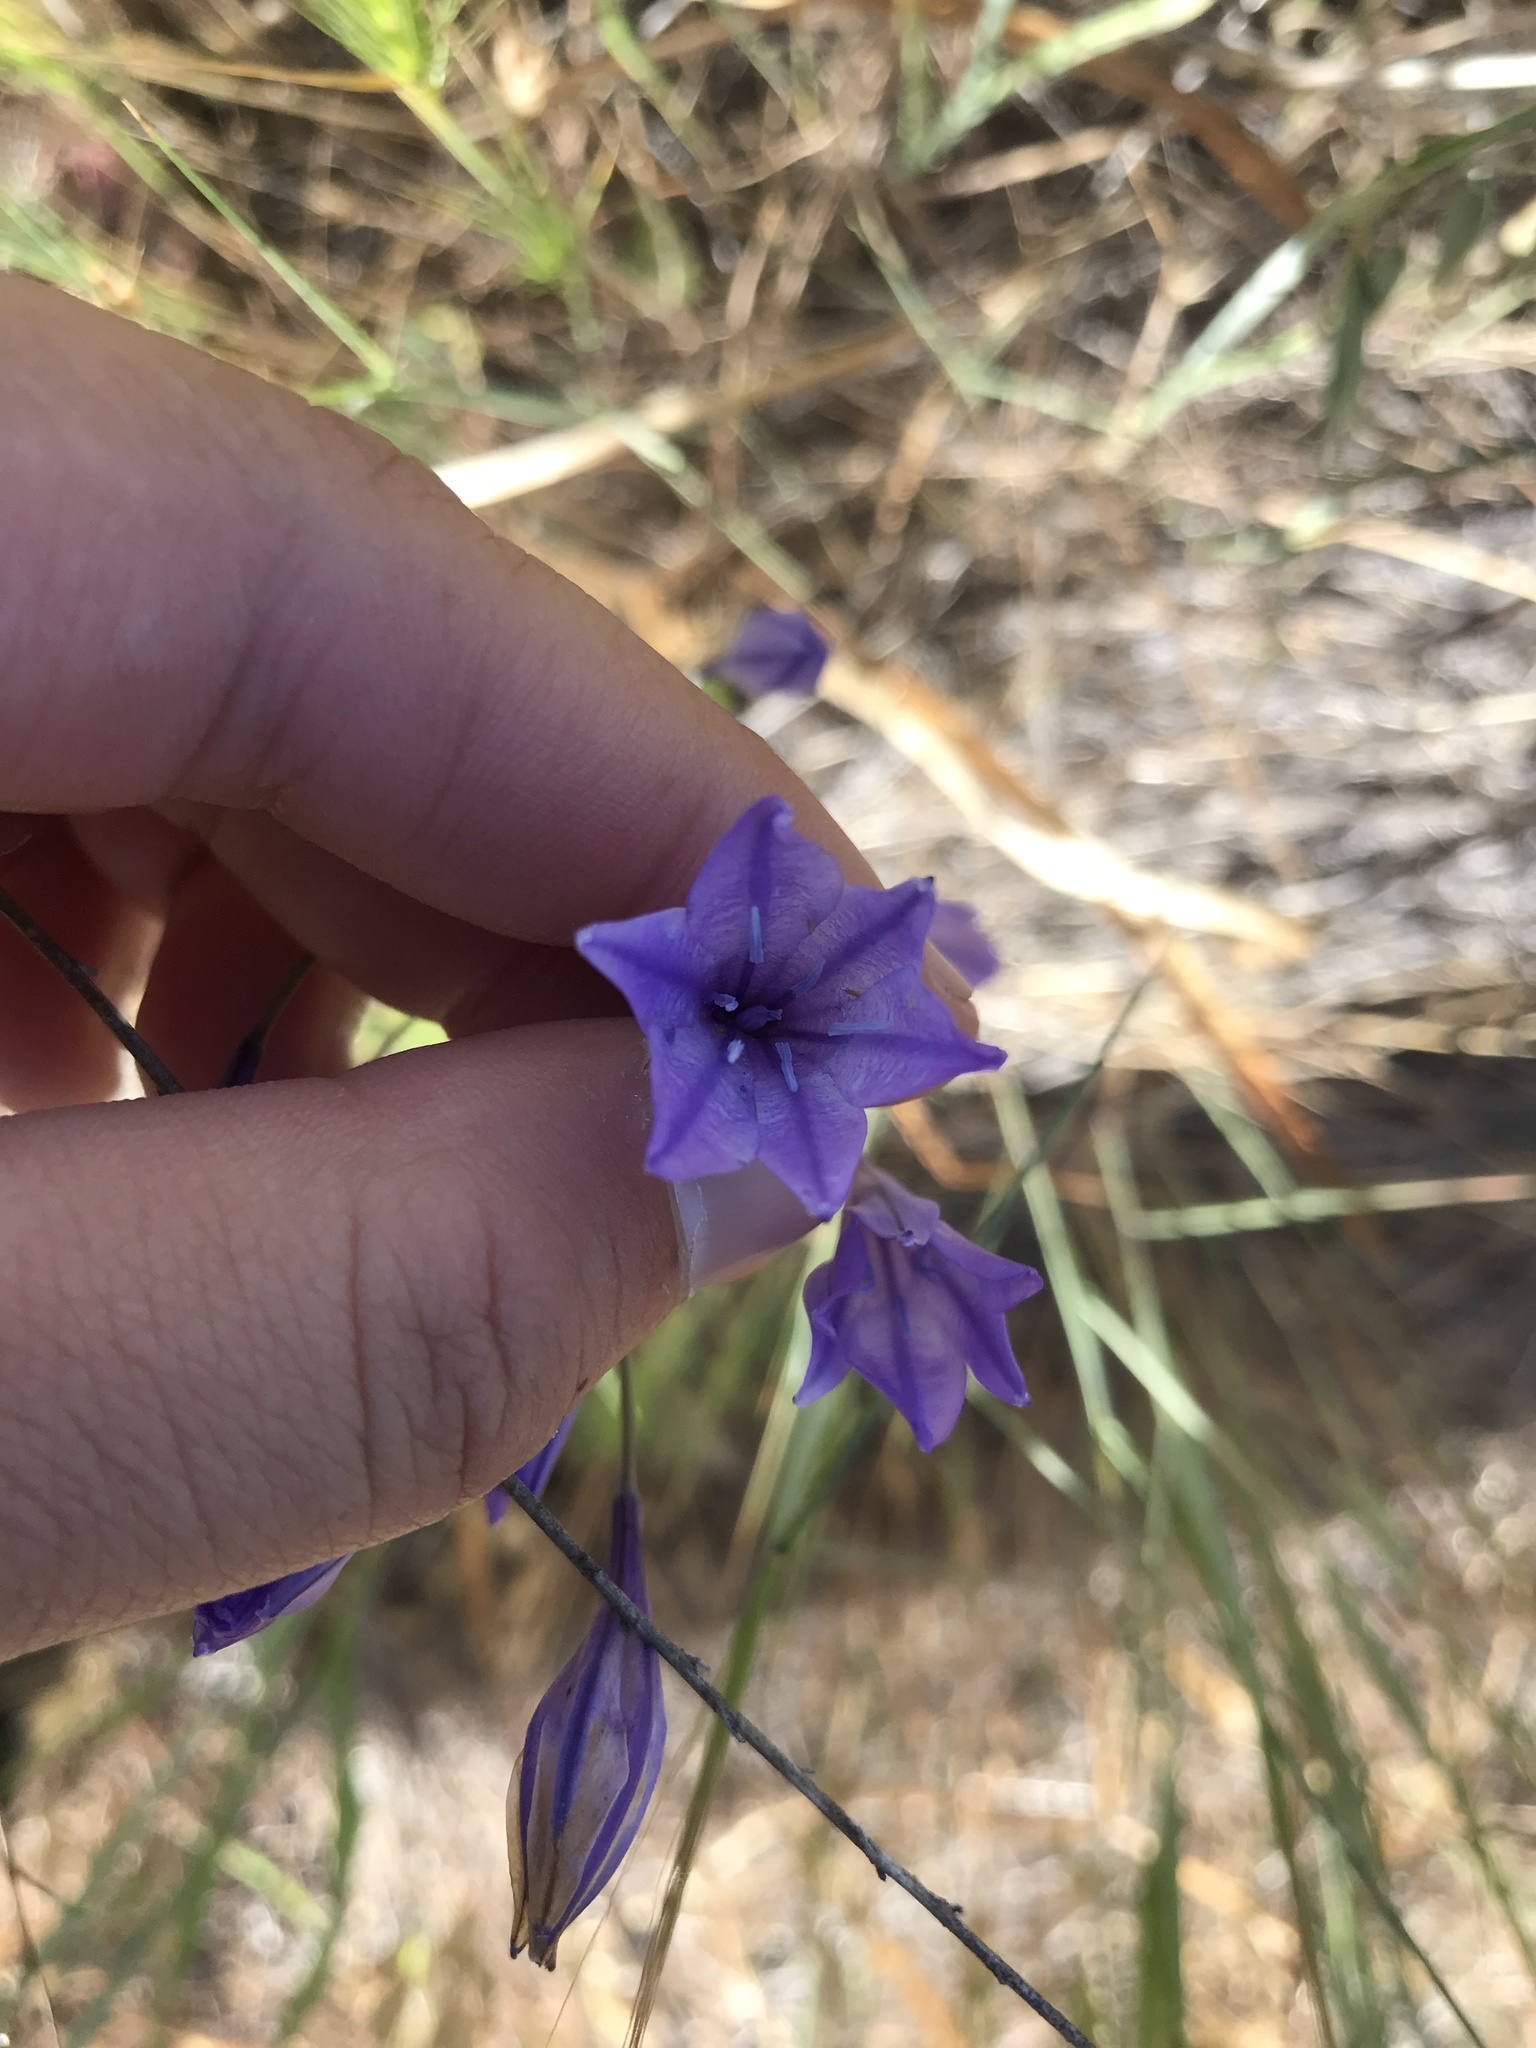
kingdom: Plantae
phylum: Tracheophyta
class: Liliopsida
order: Asparagales
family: Asparagaceae
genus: Triteleia
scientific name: Triteleia laxa
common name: Triplet-lily
